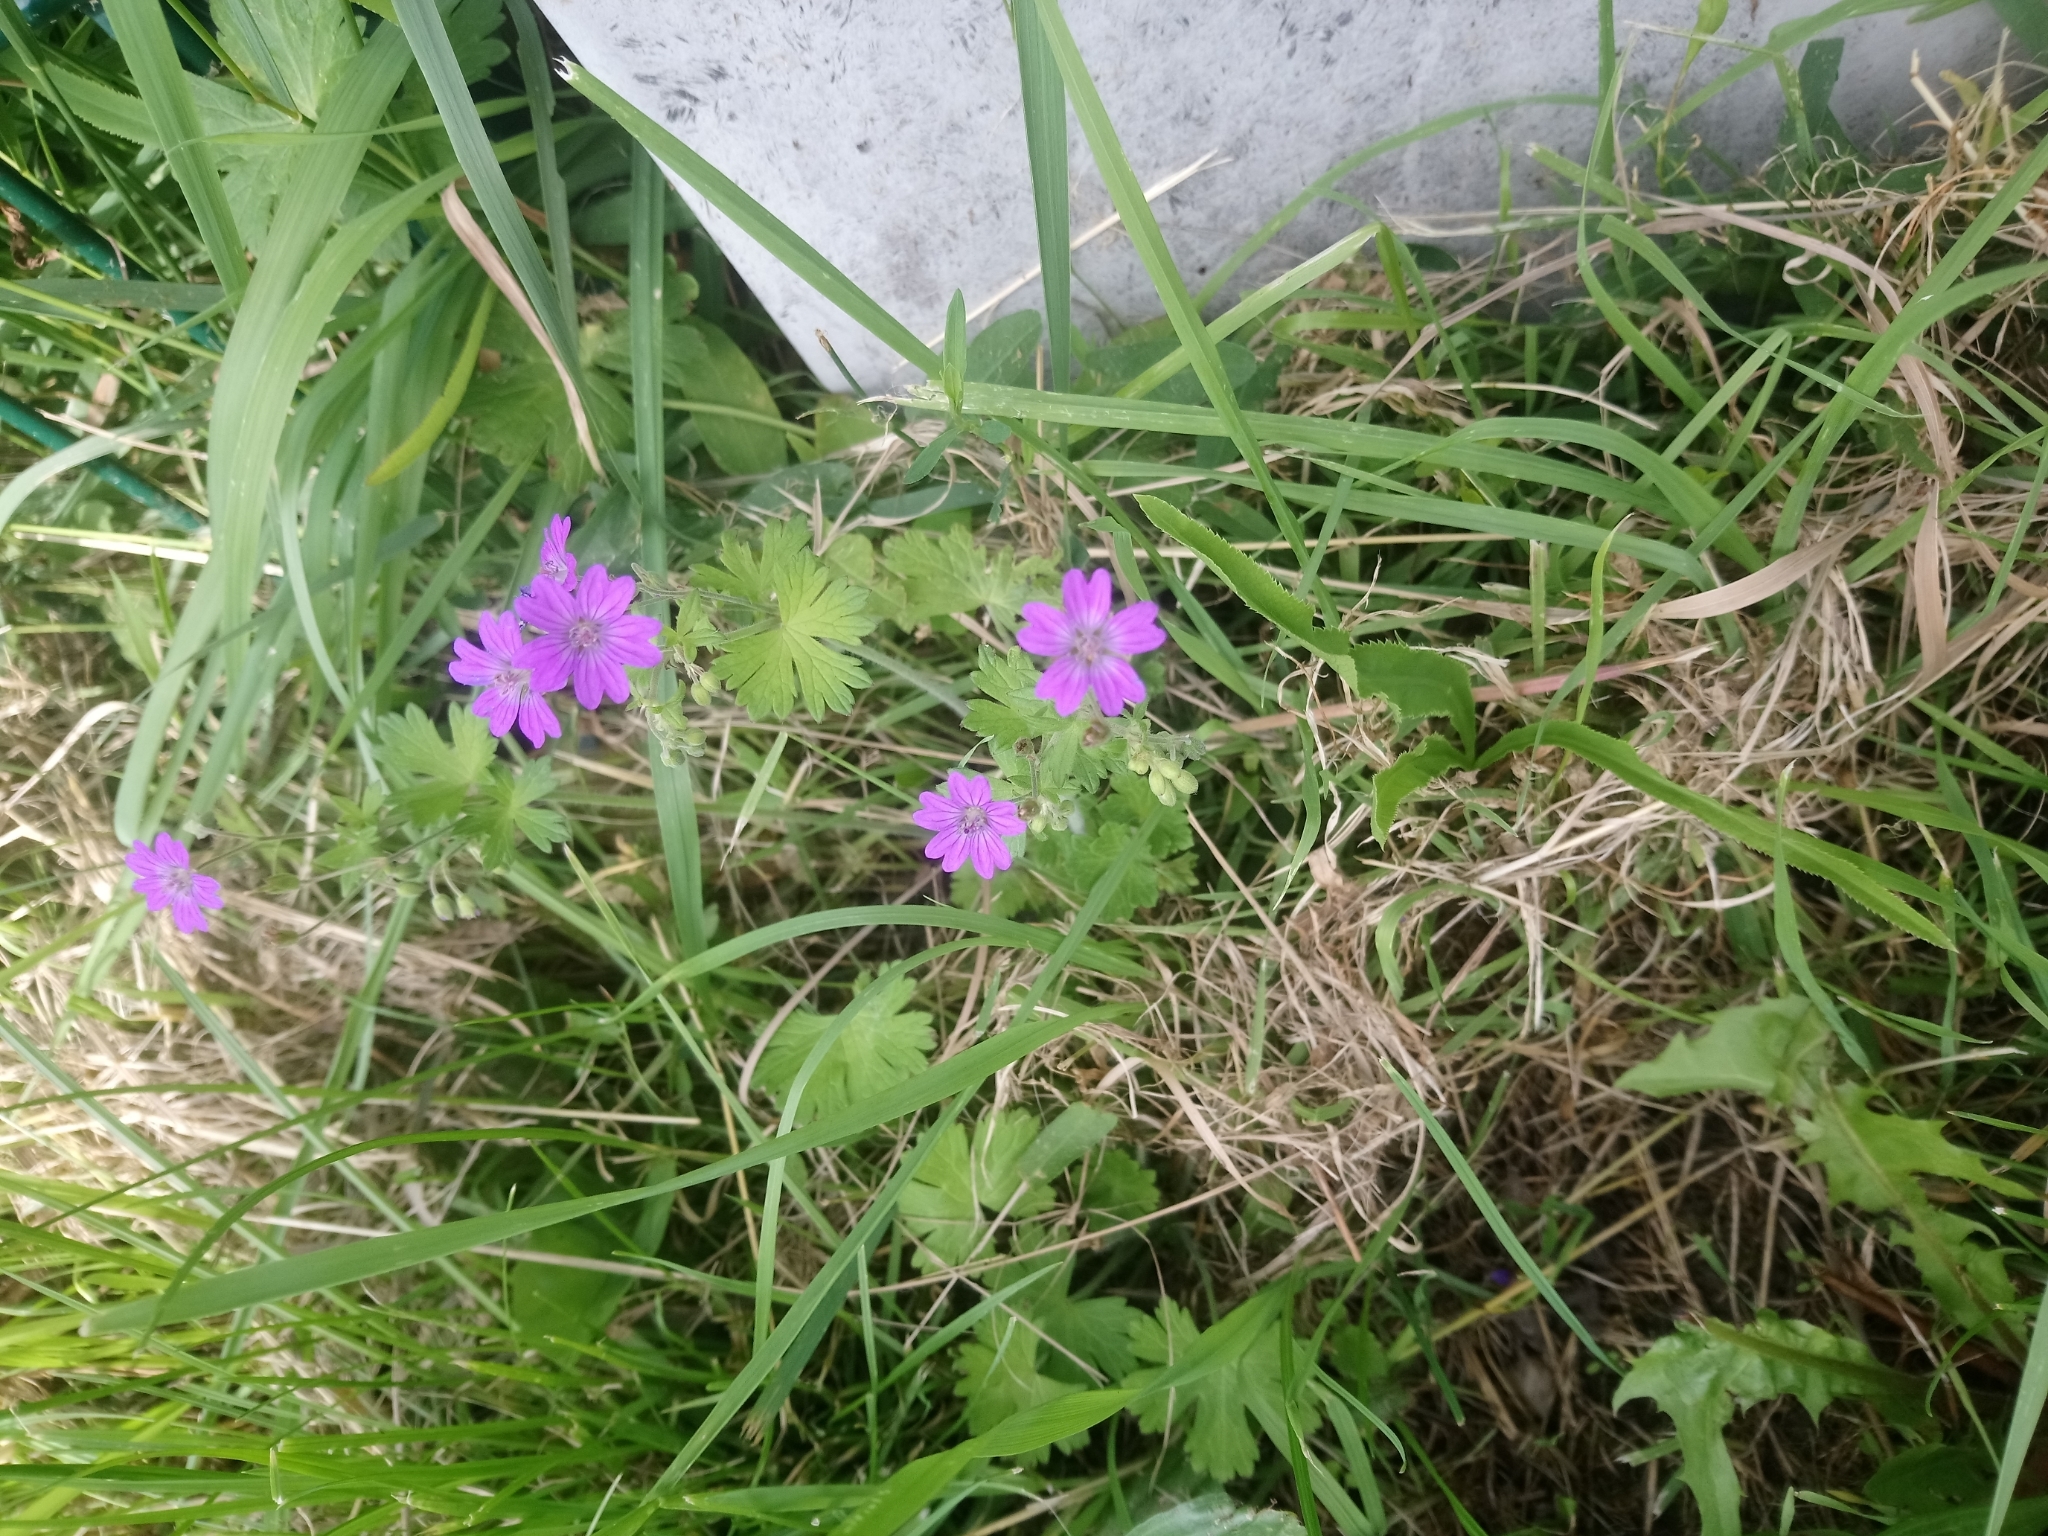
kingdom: Plantae
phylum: Tracheophyta
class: Magnoliopsida
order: Geraniales
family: Geraniaceae
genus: Geranium
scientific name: Geranium pyrenaicum
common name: Hedgerow crane's-bill
